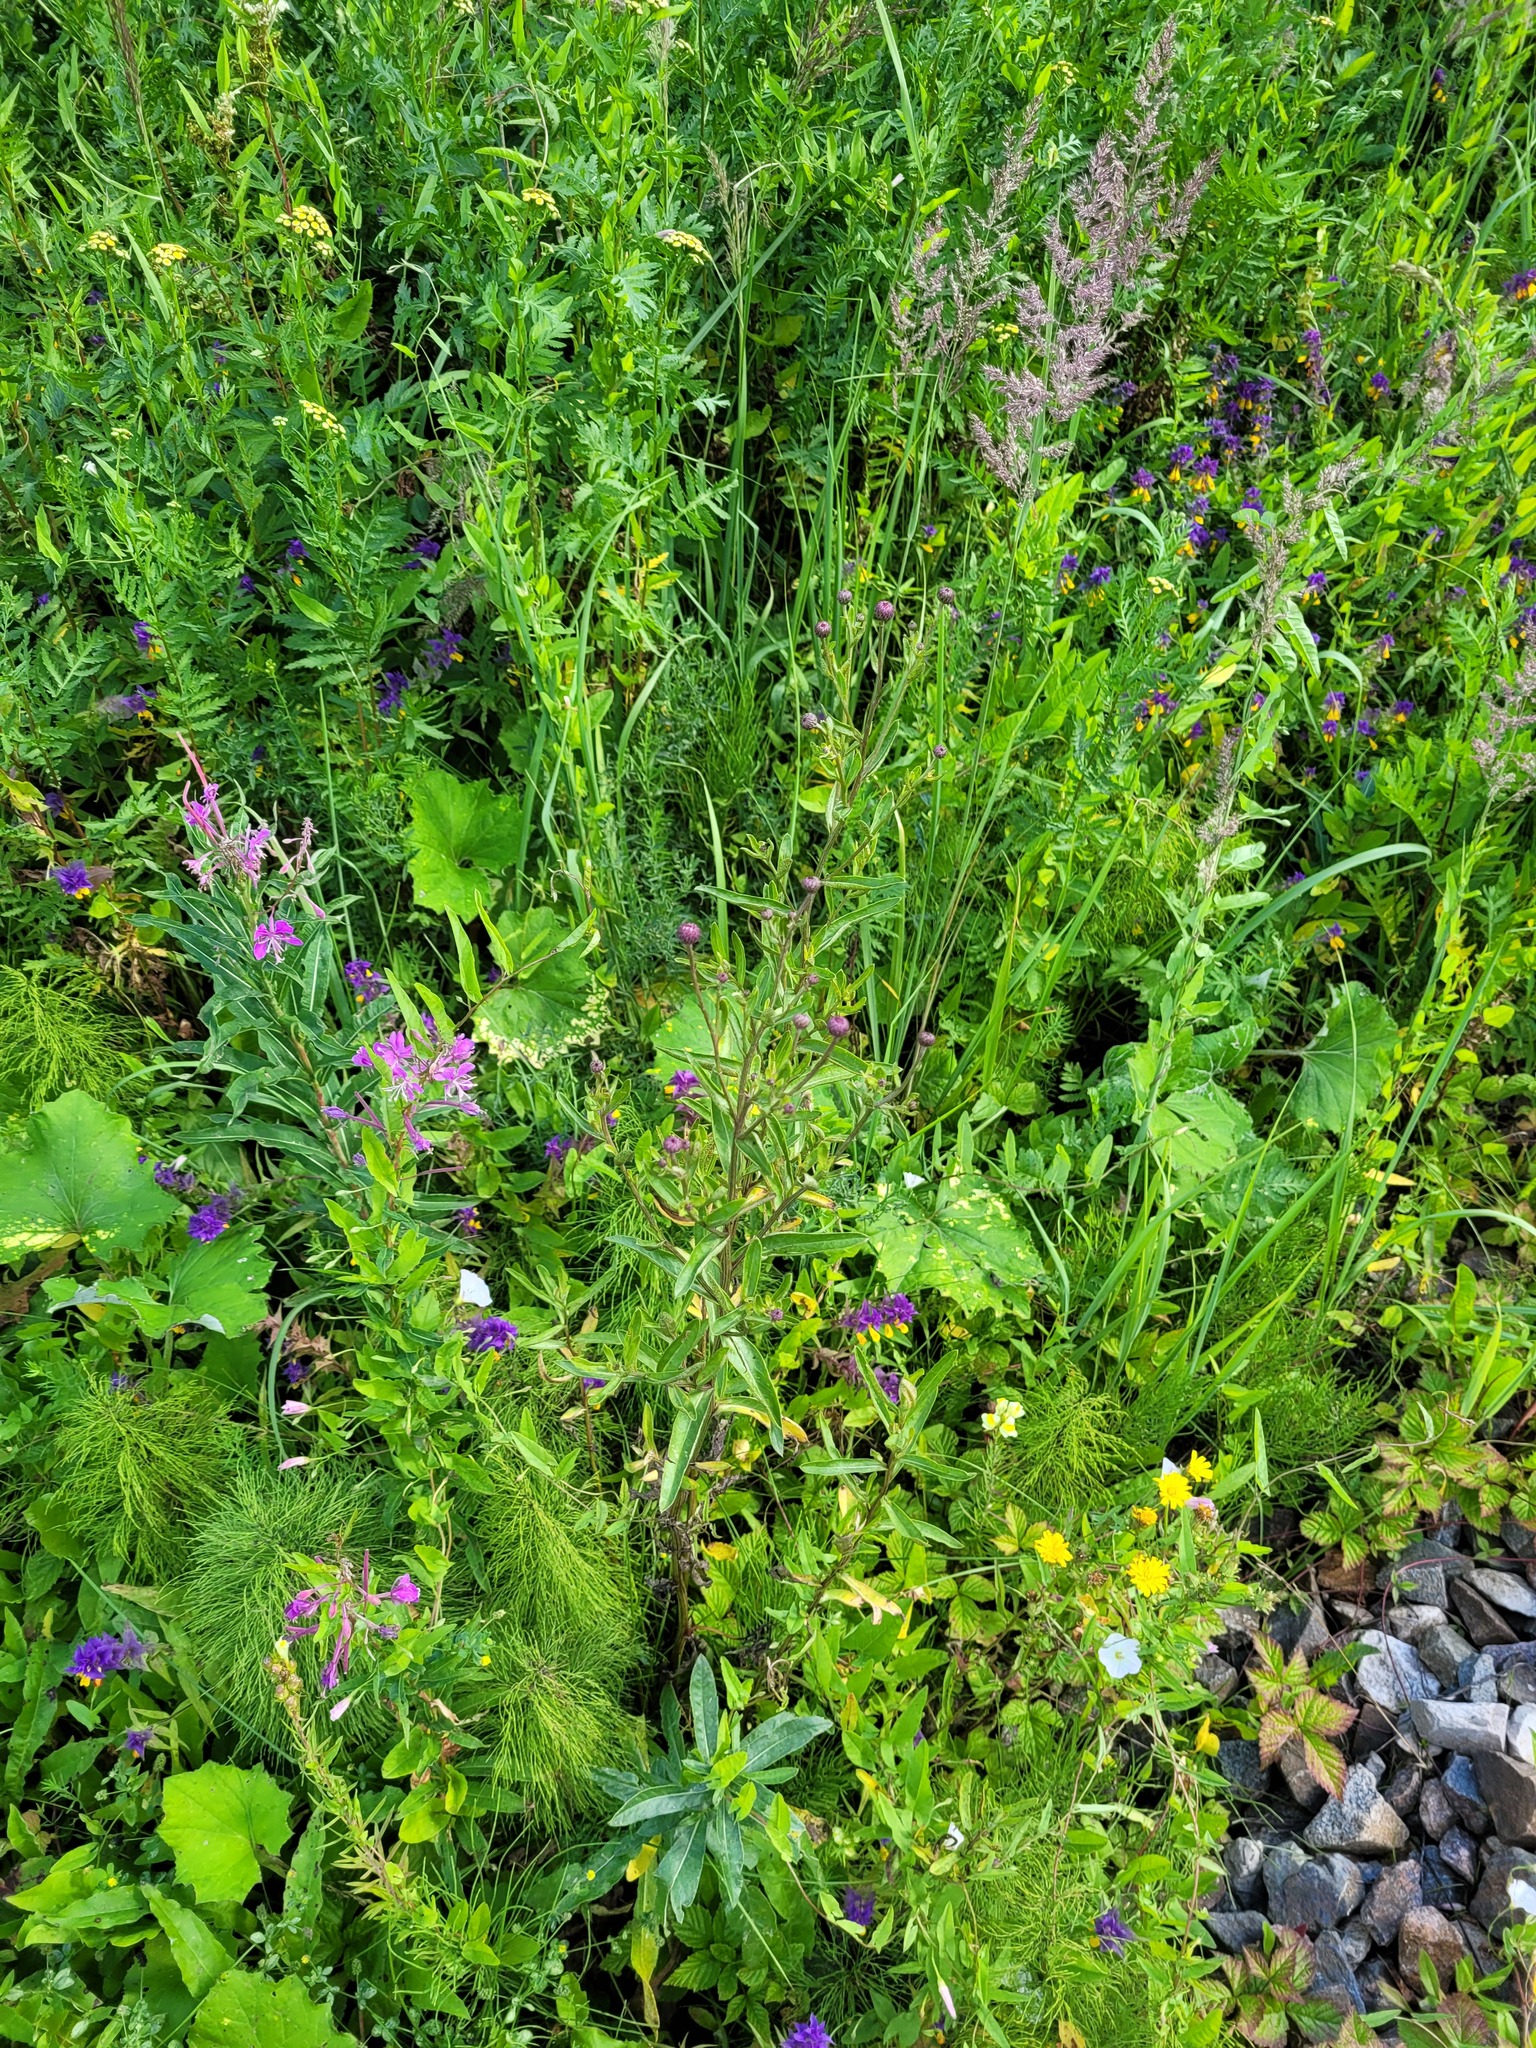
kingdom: Plantae
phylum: Tracheophyta
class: Magnoliopsida
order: Asterales
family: Asteraceae
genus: Cirsium
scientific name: Cirsium arvense
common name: Creeping thistle
